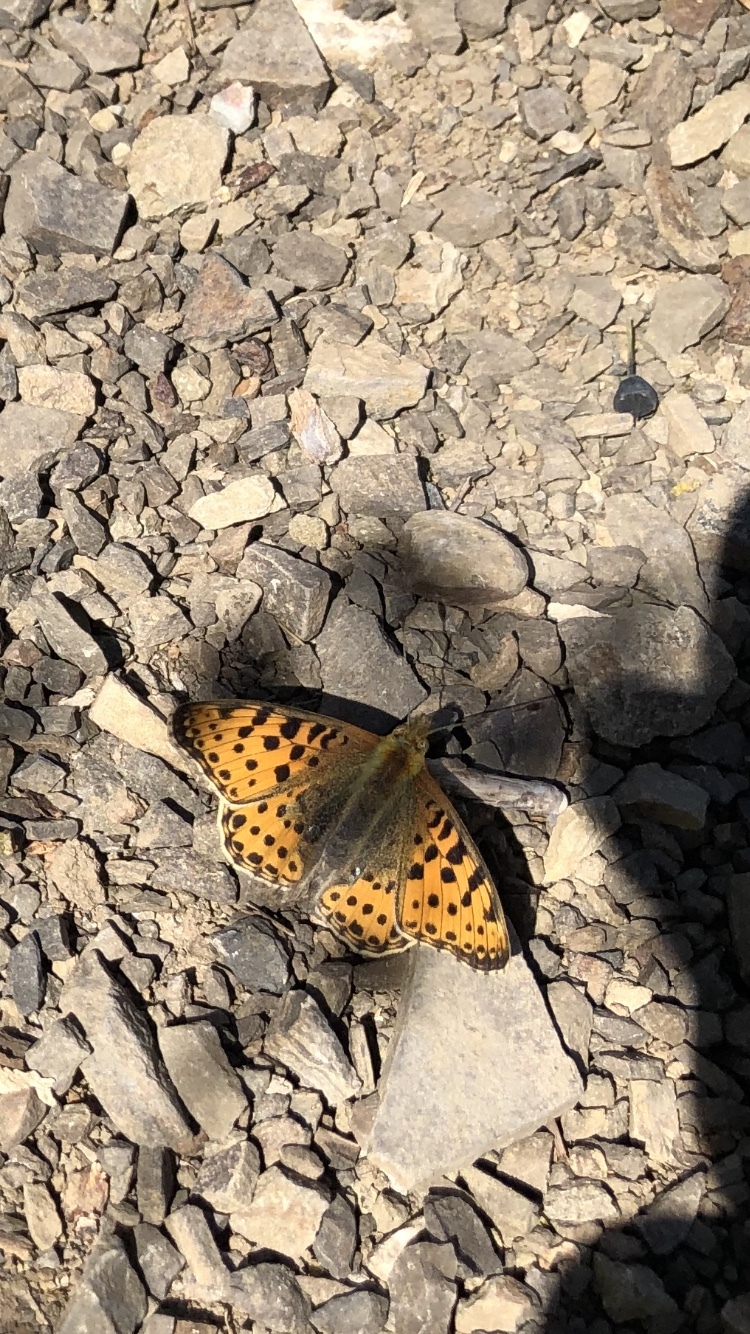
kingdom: Animalia
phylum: Arthropoda
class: Insecta
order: Lepidoptera
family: Nymphalidae
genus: Issoria
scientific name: Issoria lathonia
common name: Queen of spain fritillary
